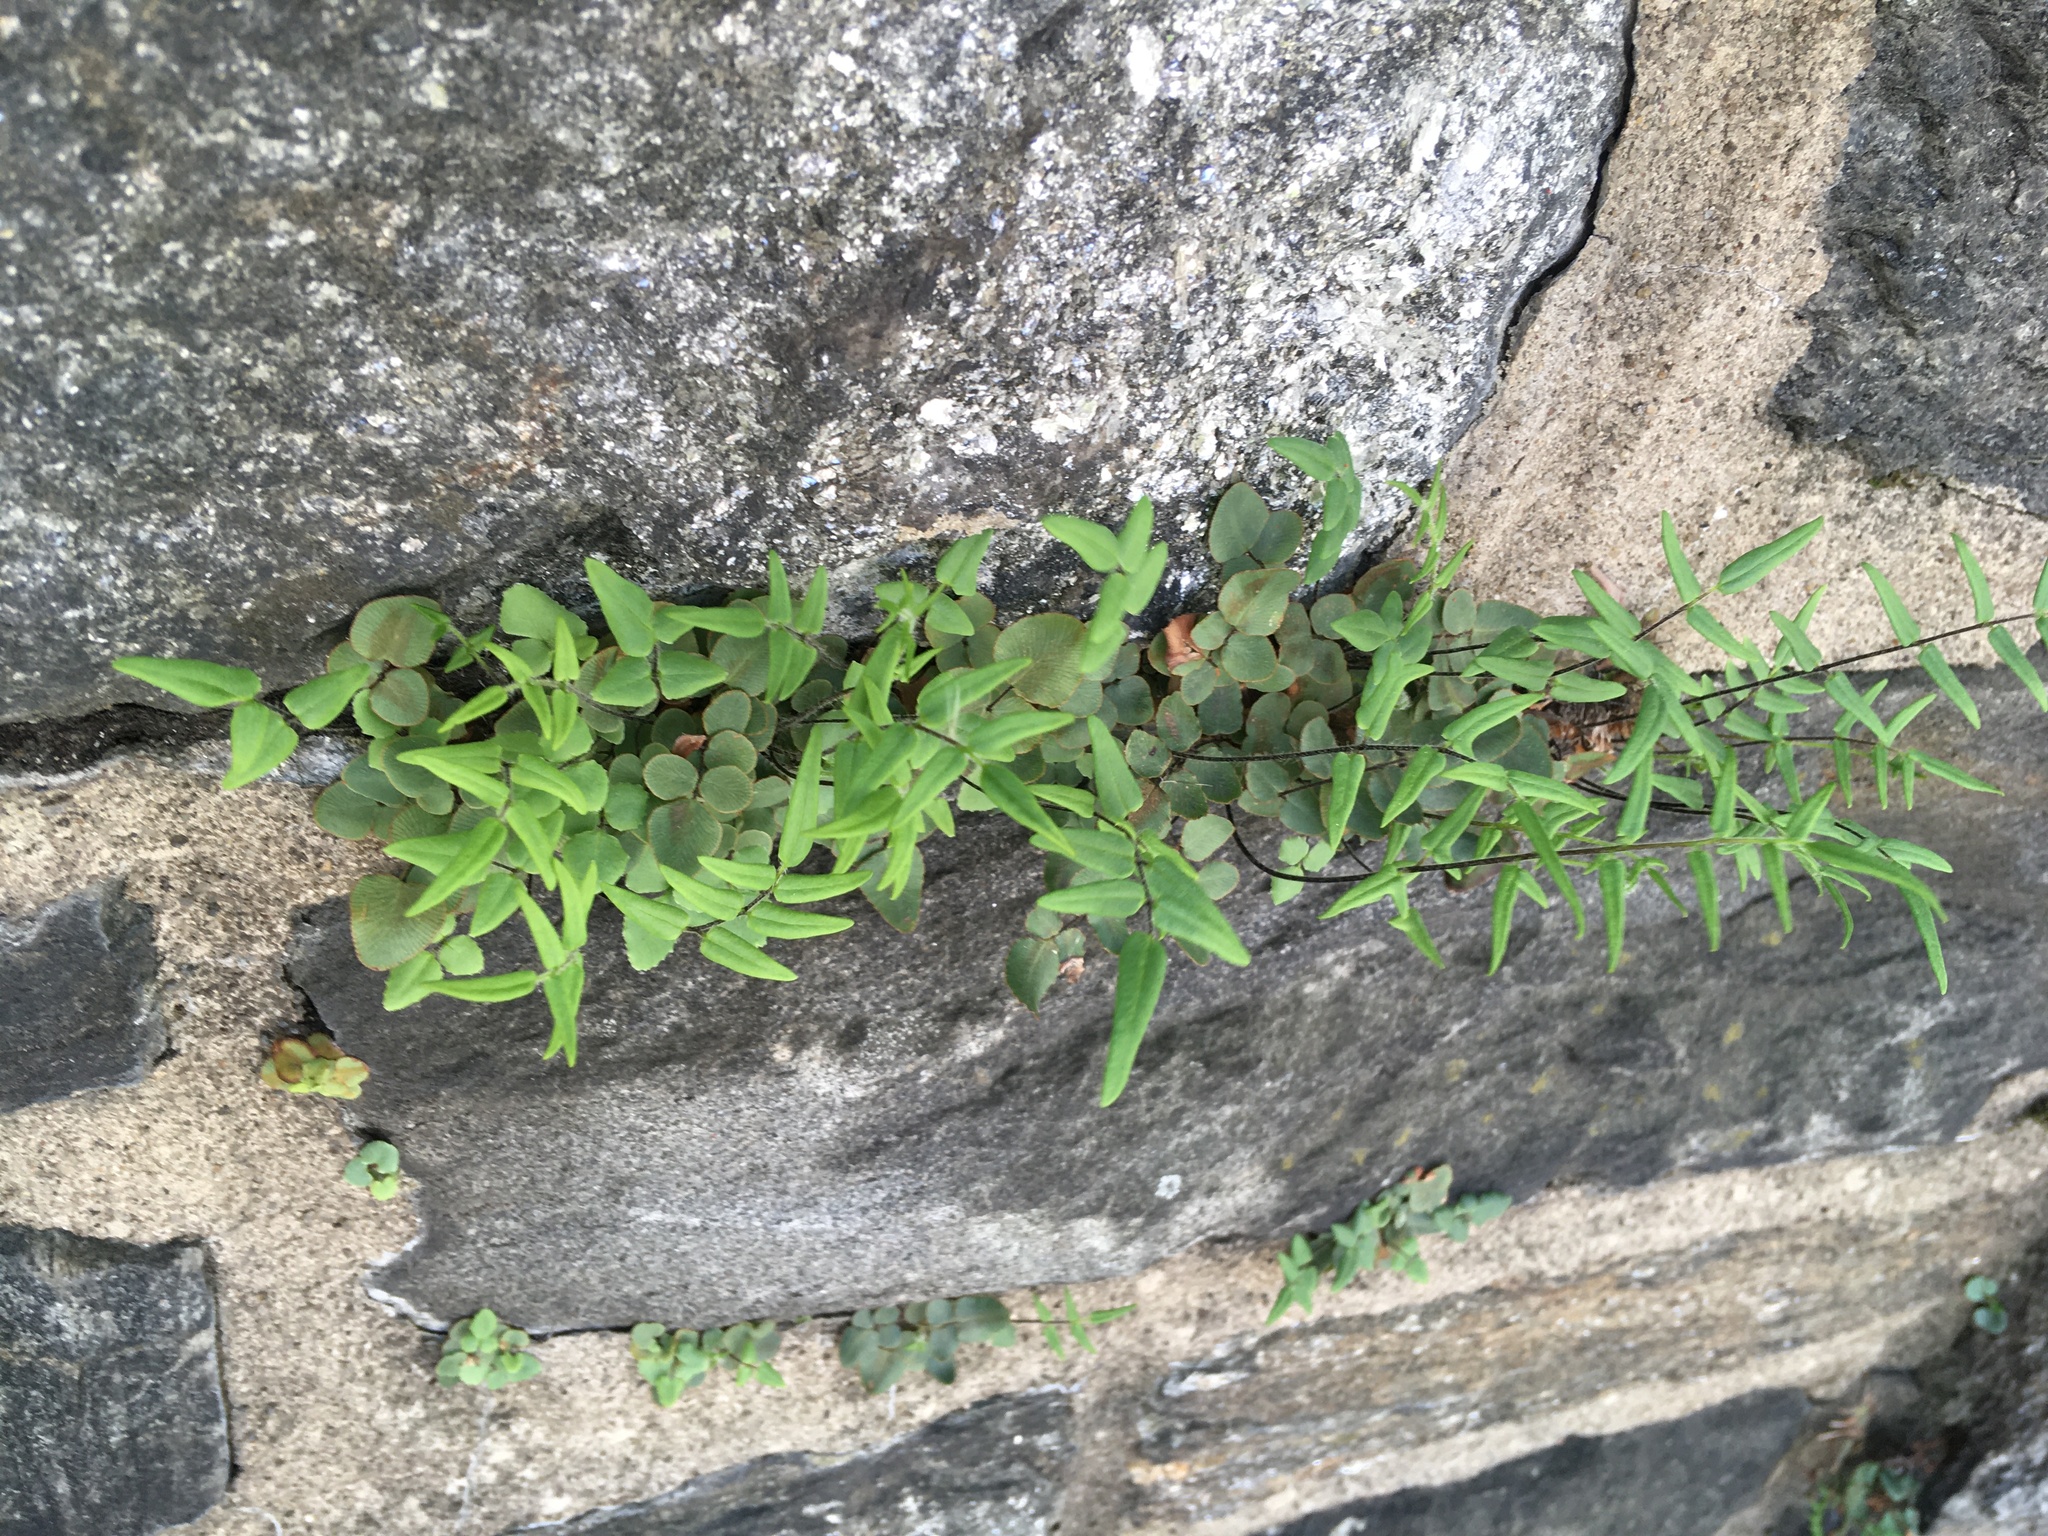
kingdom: Plantae
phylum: Tracheophyta
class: Polypodiopsida
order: Polypodiales
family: Pteridaceae
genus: Pellaea
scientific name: Pellaea atropurpurea
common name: Hairy cliffbrake
